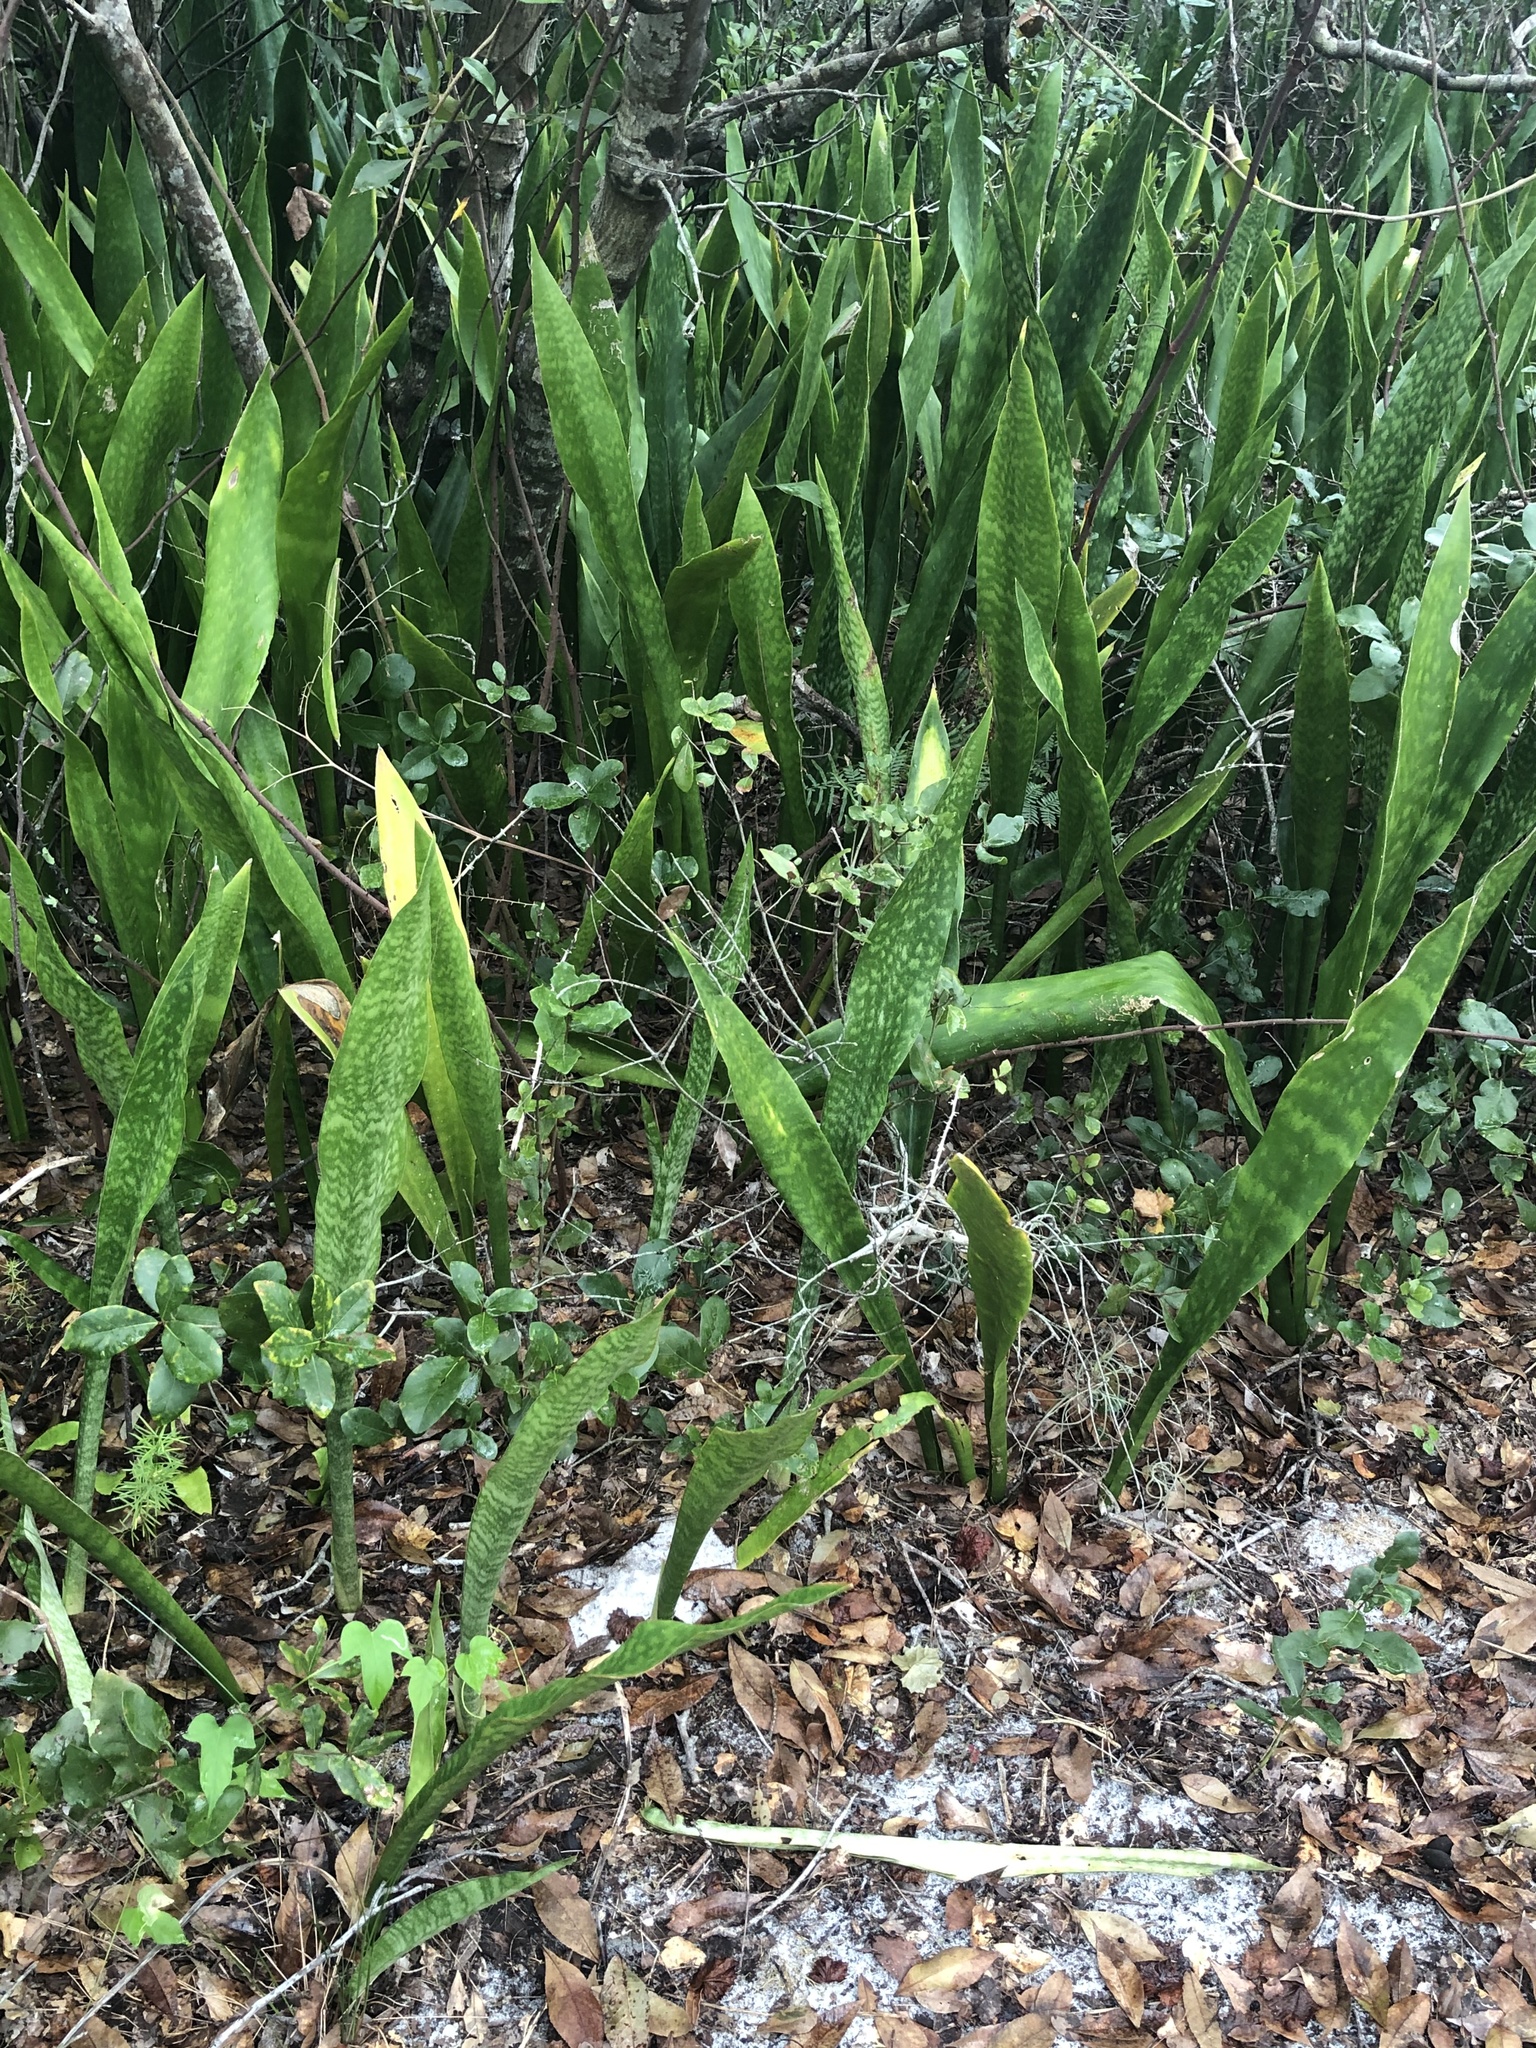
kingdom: Plantae
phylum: Tracheophyta
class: Liliopsida
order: Asparagales
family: Asparagaceae
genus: Dracaena
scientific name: Dracaena hyacinthoides
